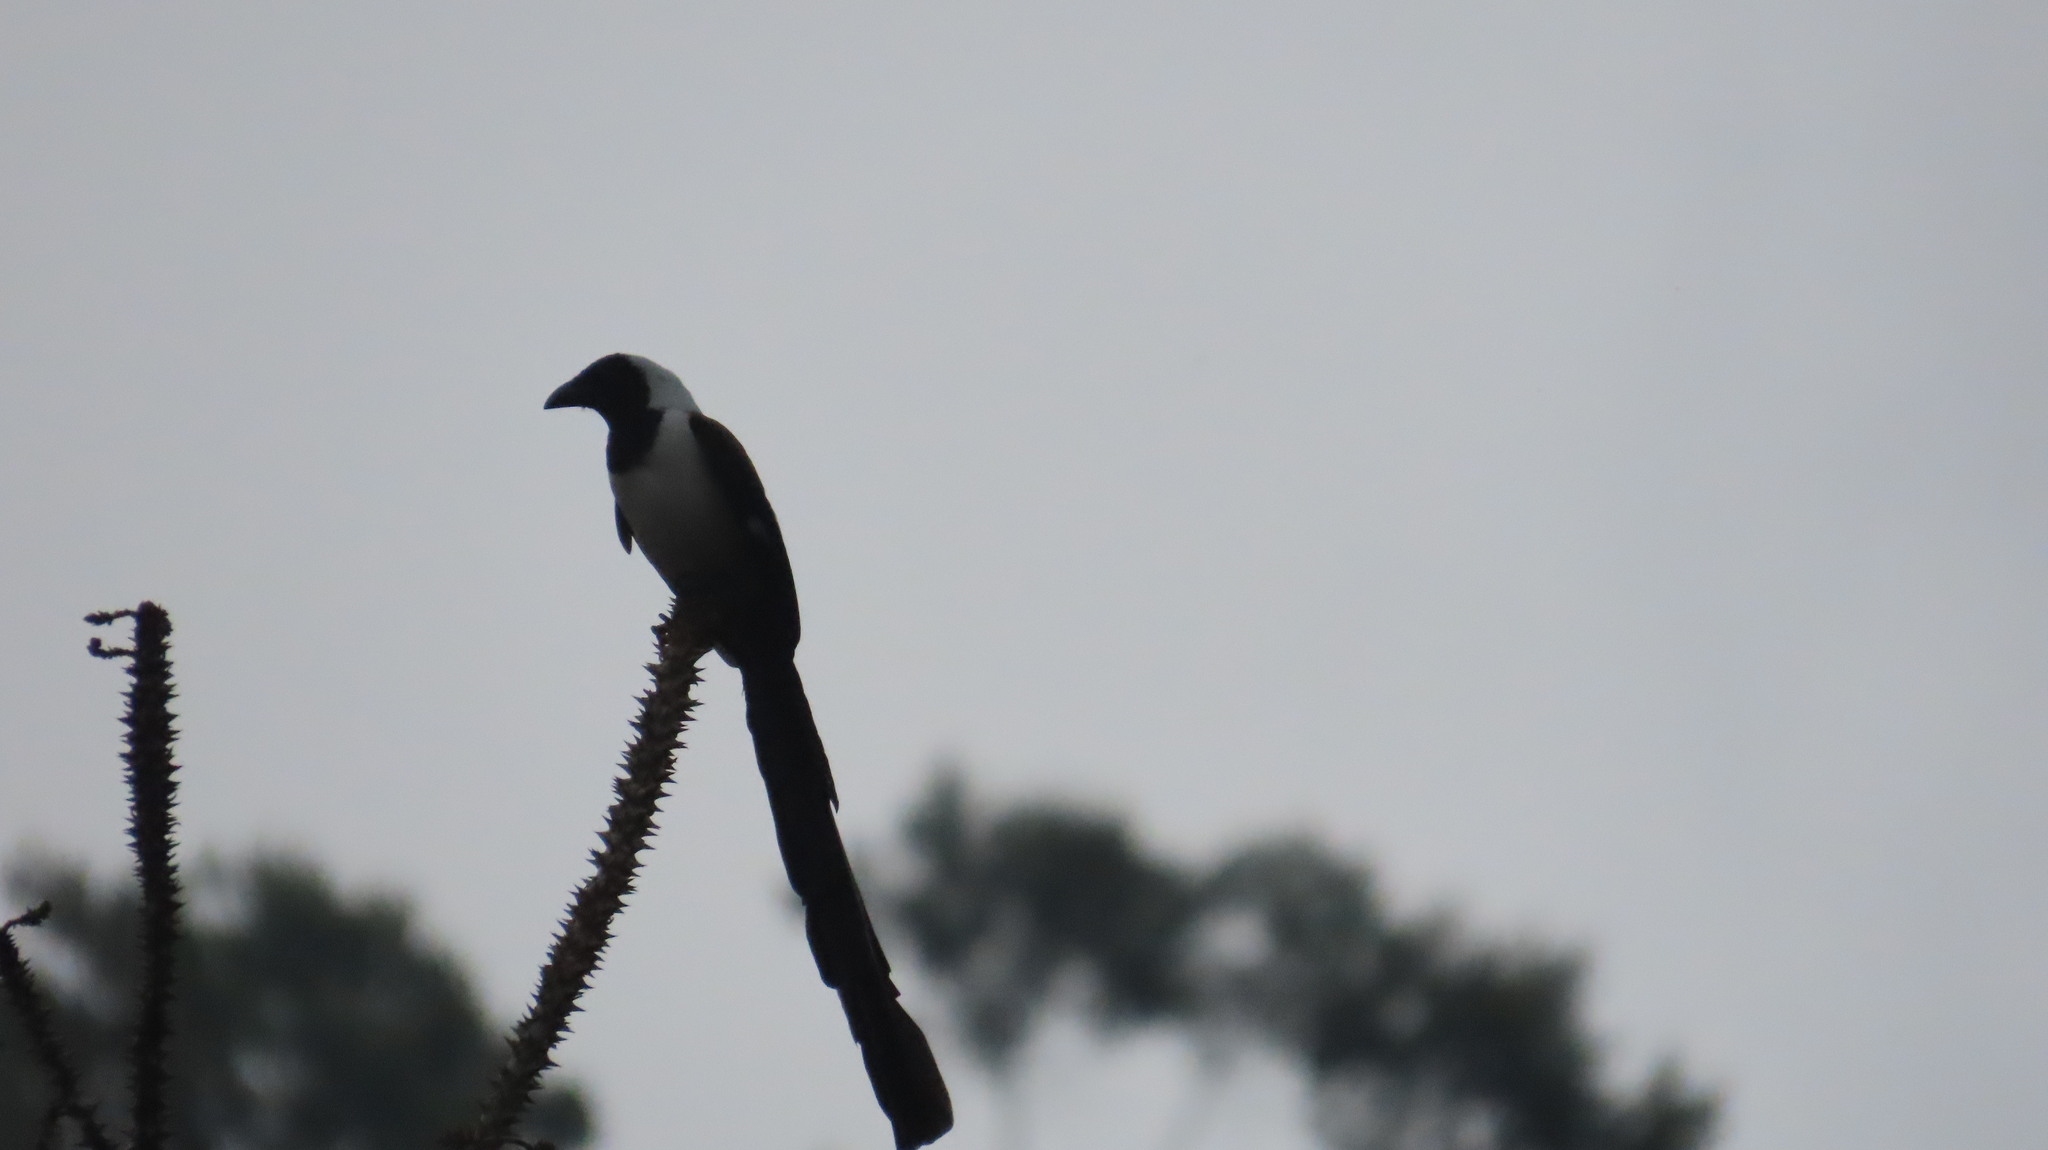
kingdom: Animalia
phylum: Chordata
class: Aves
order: Passeriformes
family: Corvidae
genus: Dendrocitta
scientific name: Dendrocitta leucogastra
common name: White-bellied treepie
